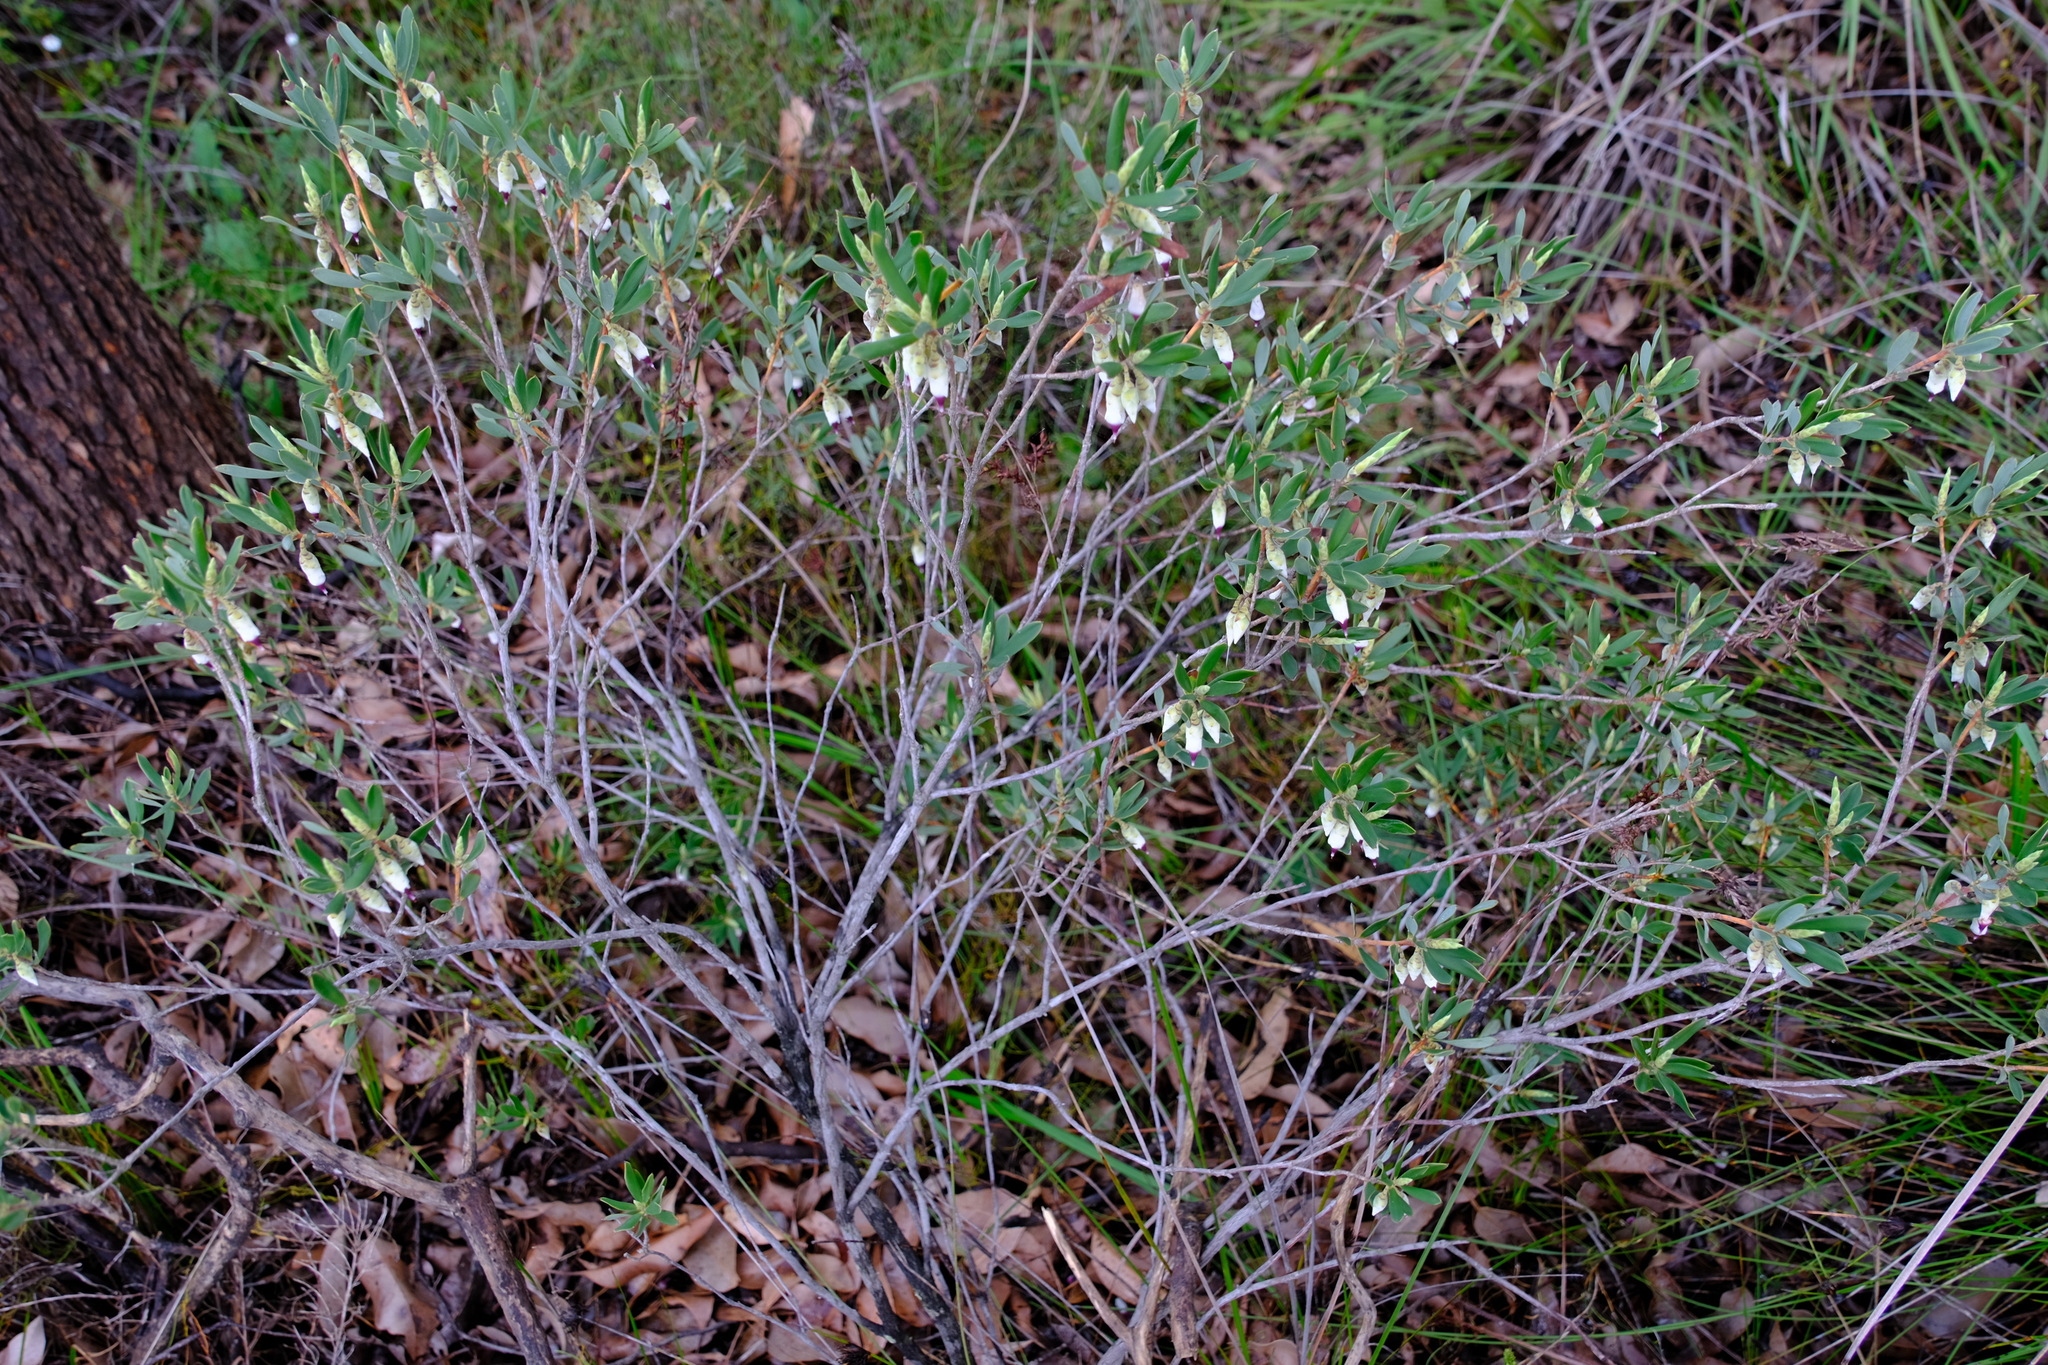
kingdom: Plantae
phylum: Tracheophyta
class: Magnoliopsida
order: Ericales
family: Ericaceae
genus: Conostephium
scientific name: Conostephium pendulum
